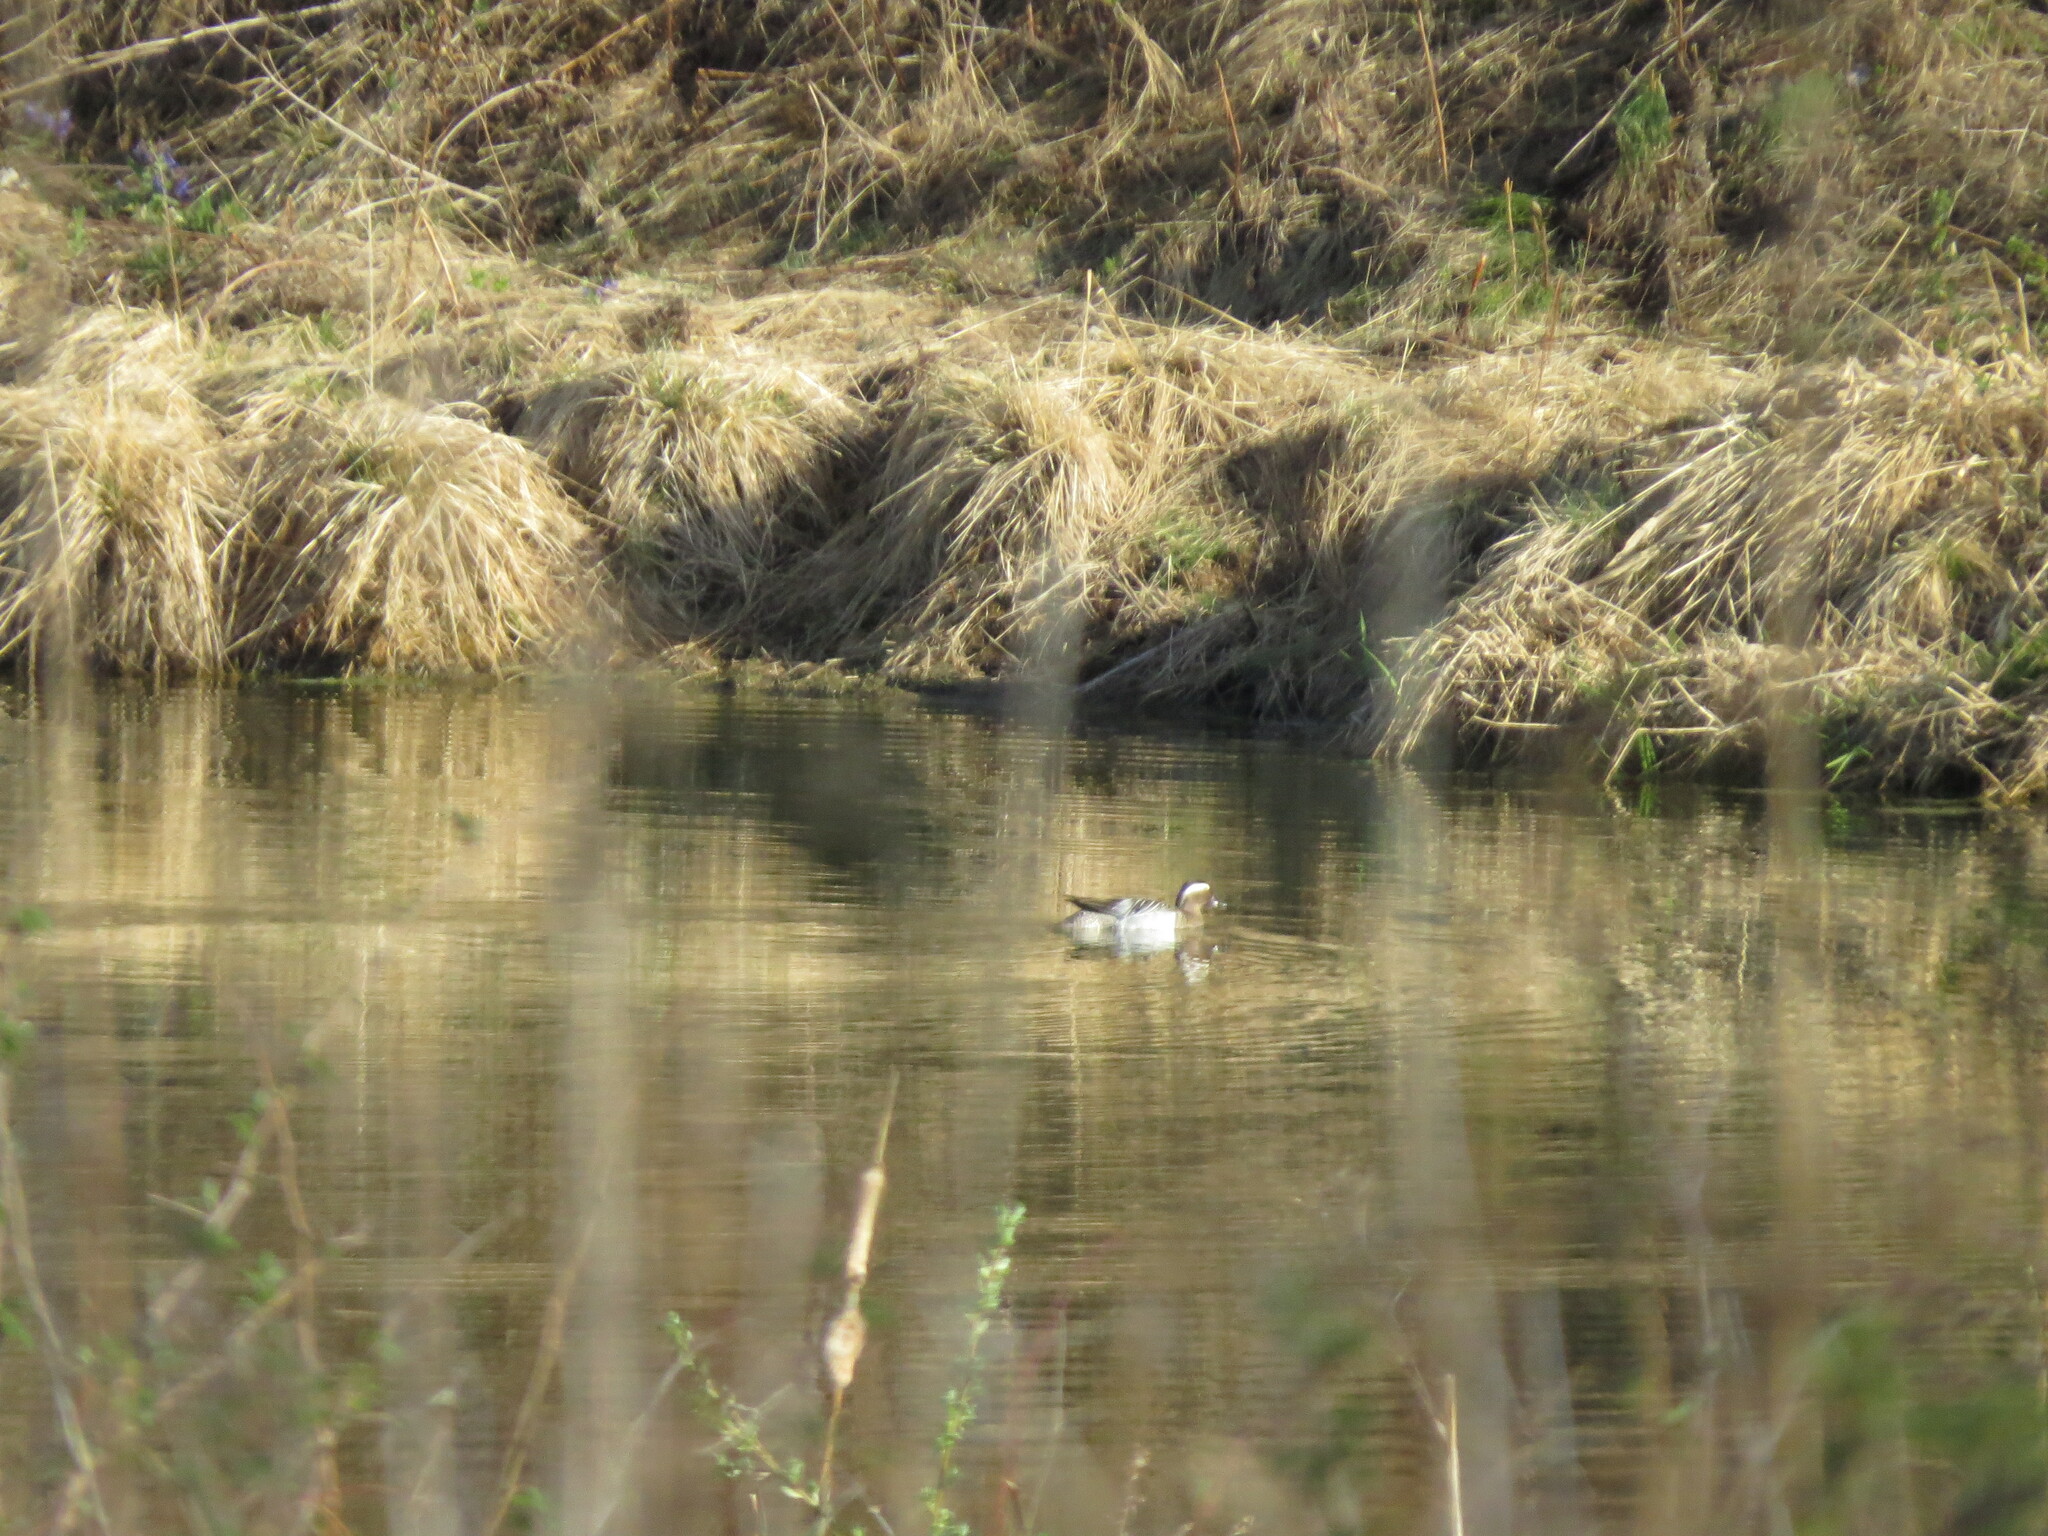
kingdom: Animalia
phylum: Chordata
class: Aves
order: Anseriformes
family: Anatidae
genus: Spatula
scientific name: Spatula querquedula
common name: Garganey
